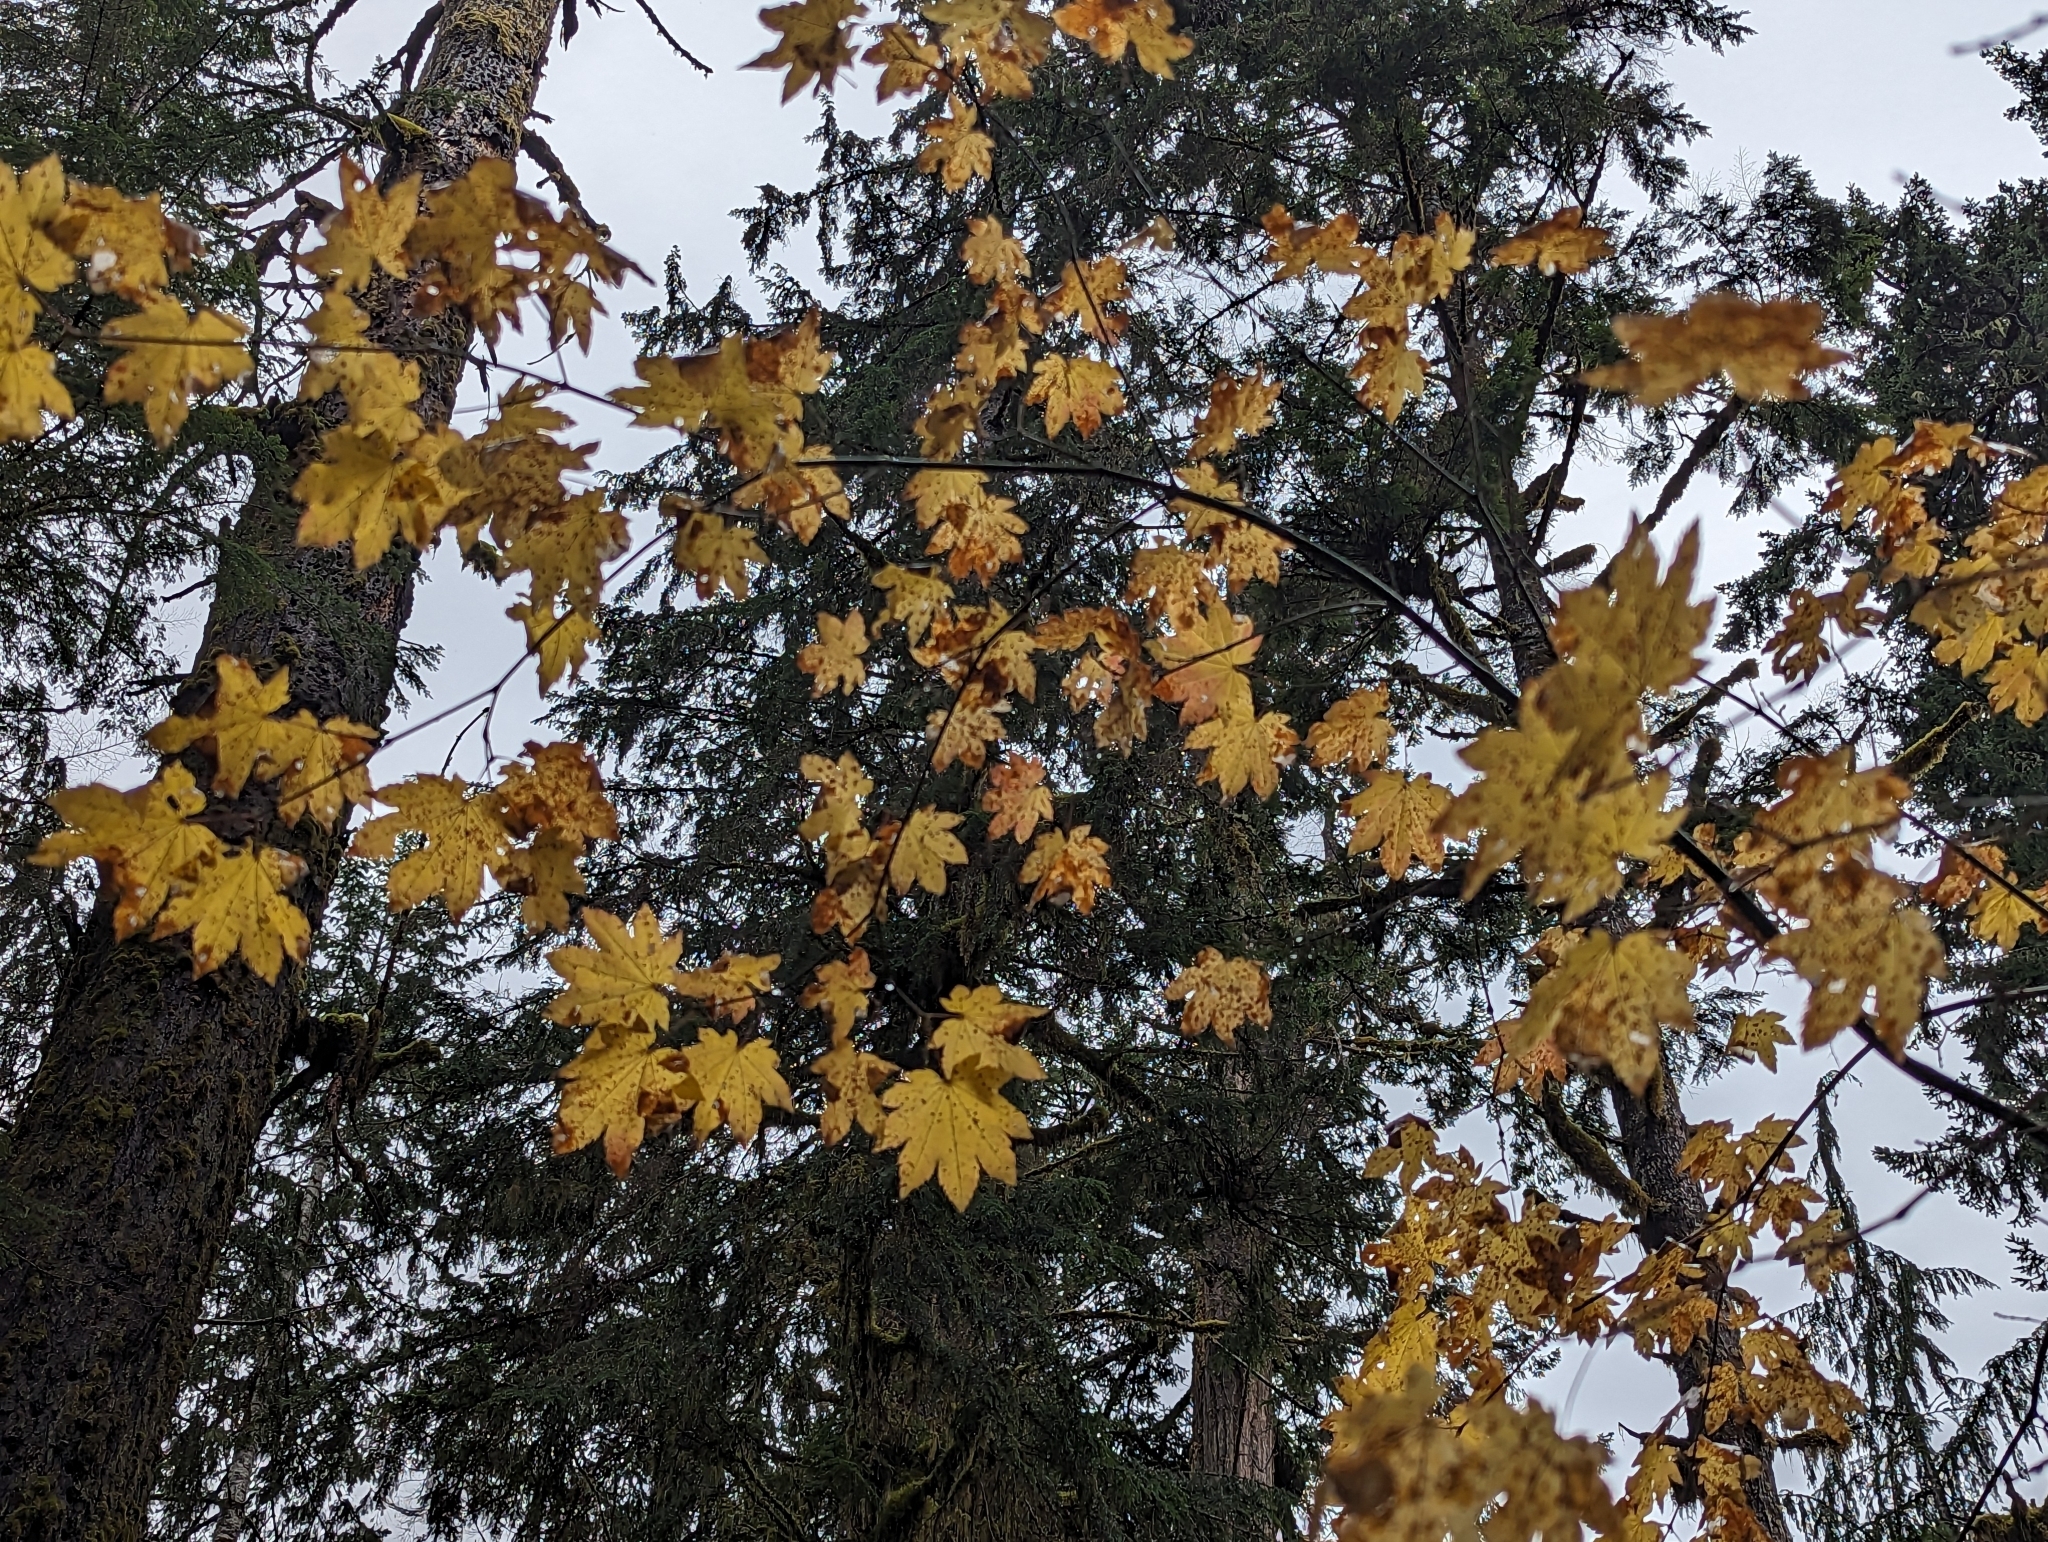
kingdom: Plantae
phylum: Tracheophyta
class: Magnoliopsida
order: Sapindales
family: Sapindaceae
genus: Acer
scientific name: Acer circinatum
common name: Vine maple
